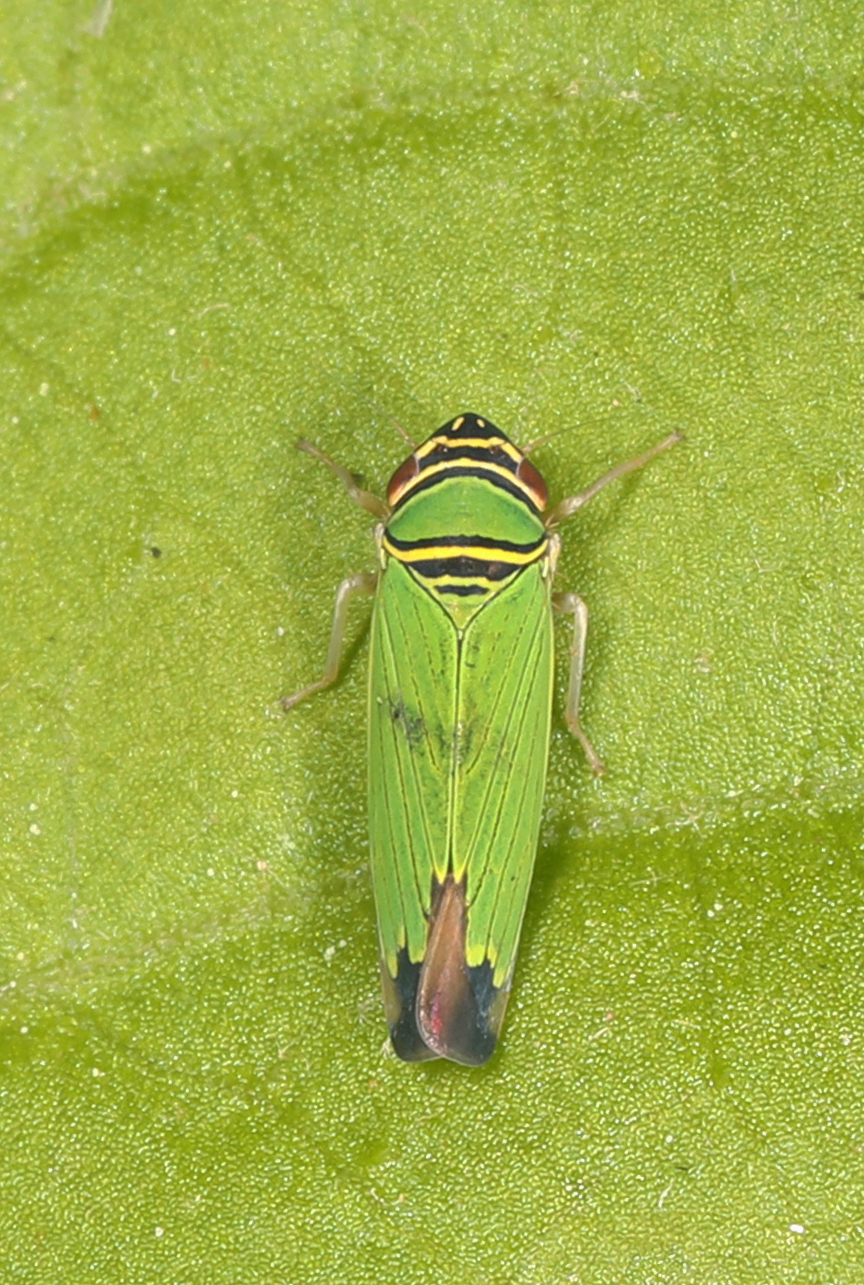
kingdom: Animalia
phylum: Arthropoda
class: Insecta
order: Hemiptera
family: Cicadellidae
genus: Tylozygus
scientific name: Tylozygus geometricus
